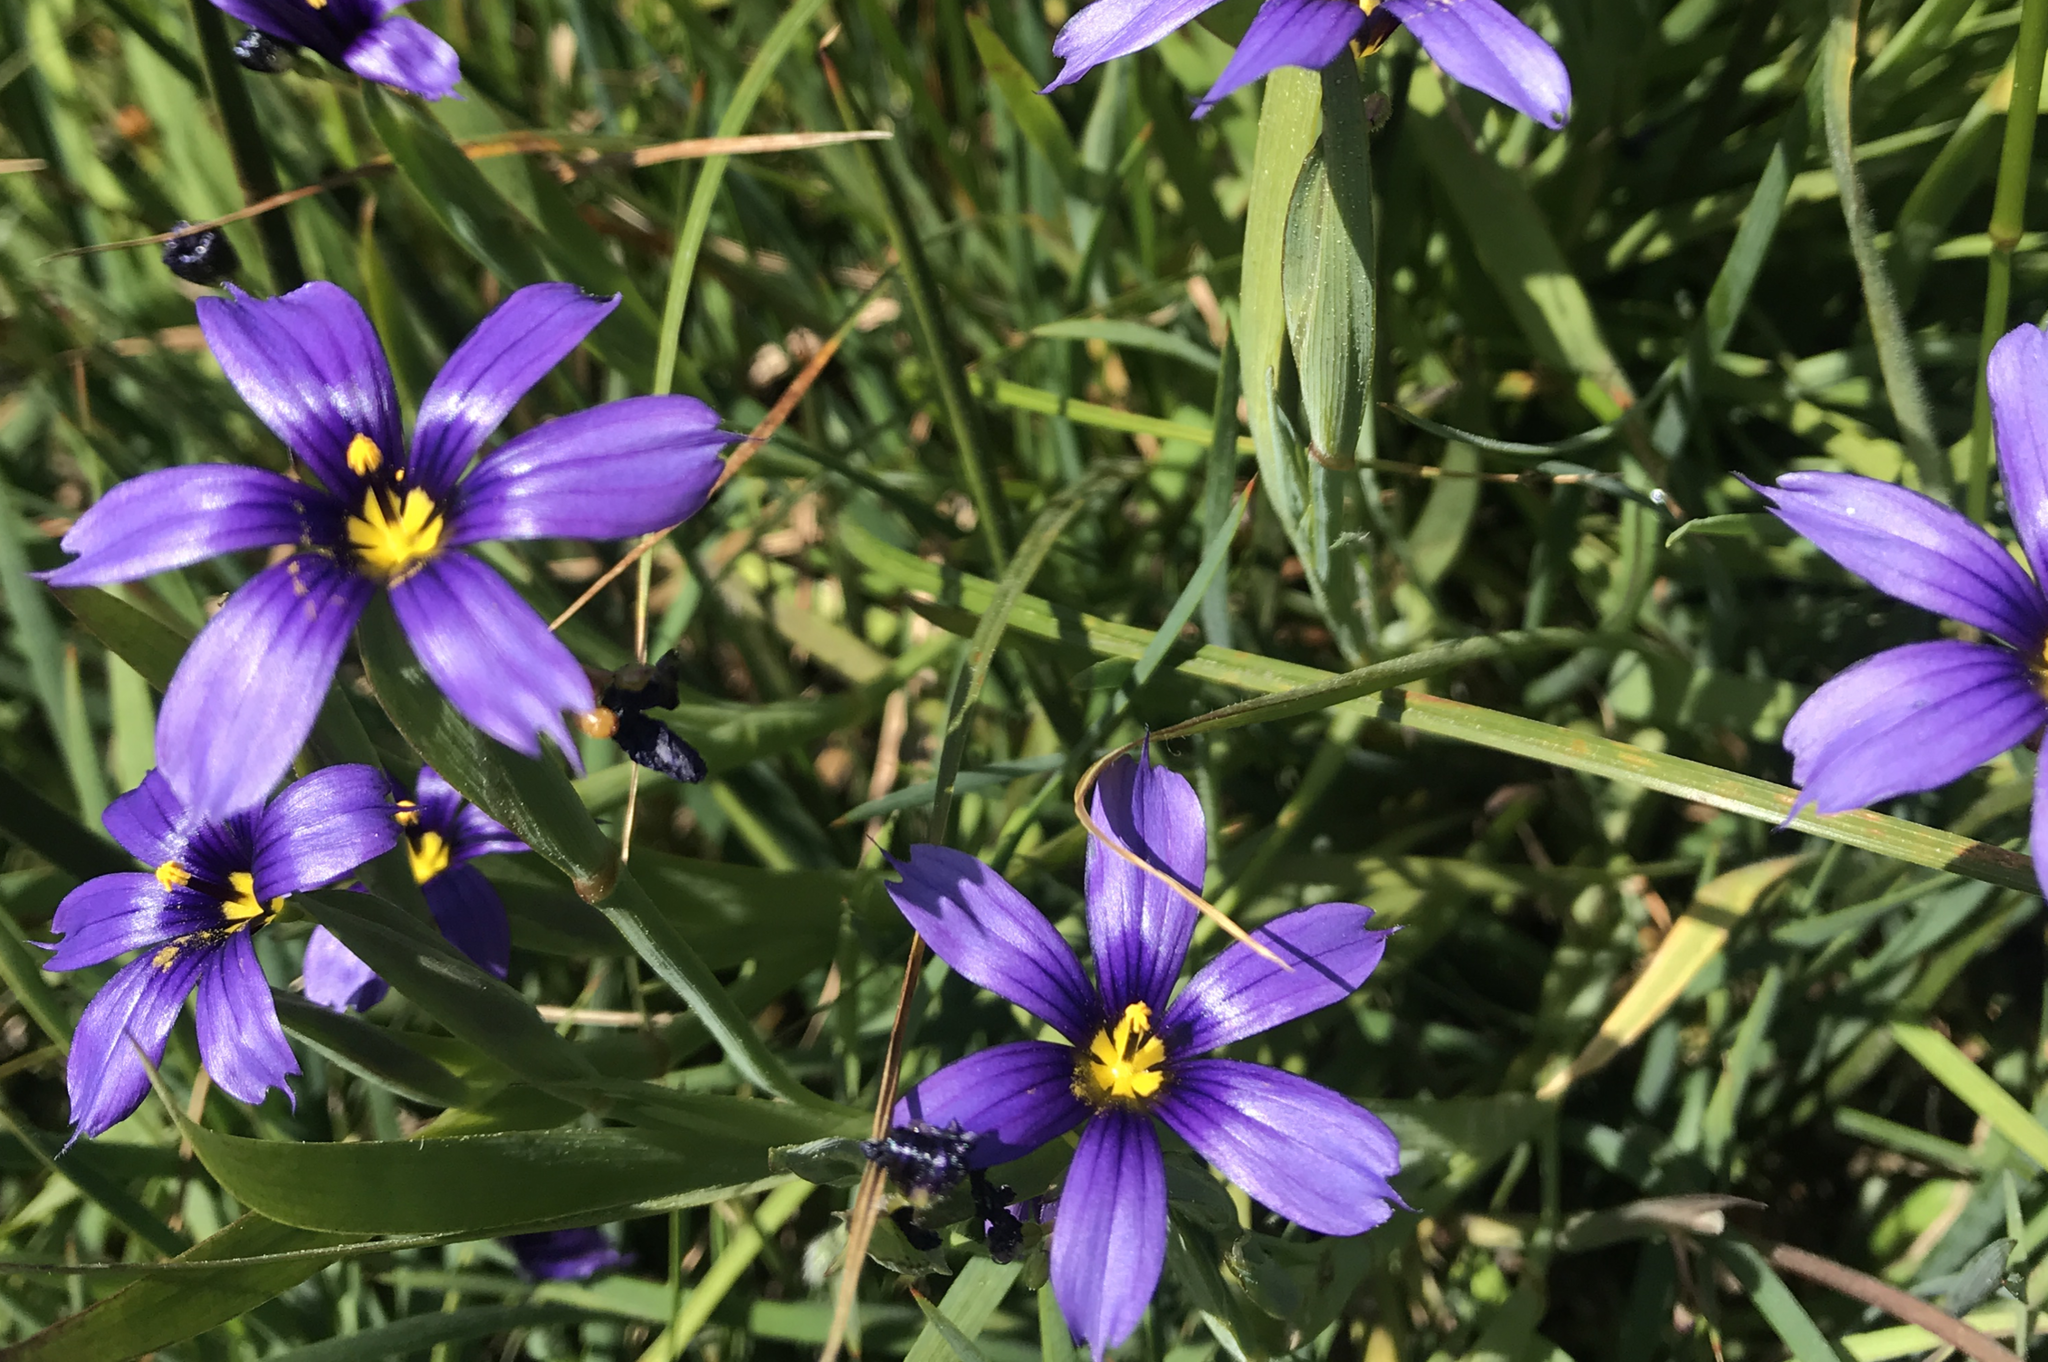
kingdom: Plantae
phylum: Tracheophyta
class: Liliopsida
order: Asparagales
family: Iridaceae
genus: Sisyrinchium
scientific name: Sisyrinchium bellum
